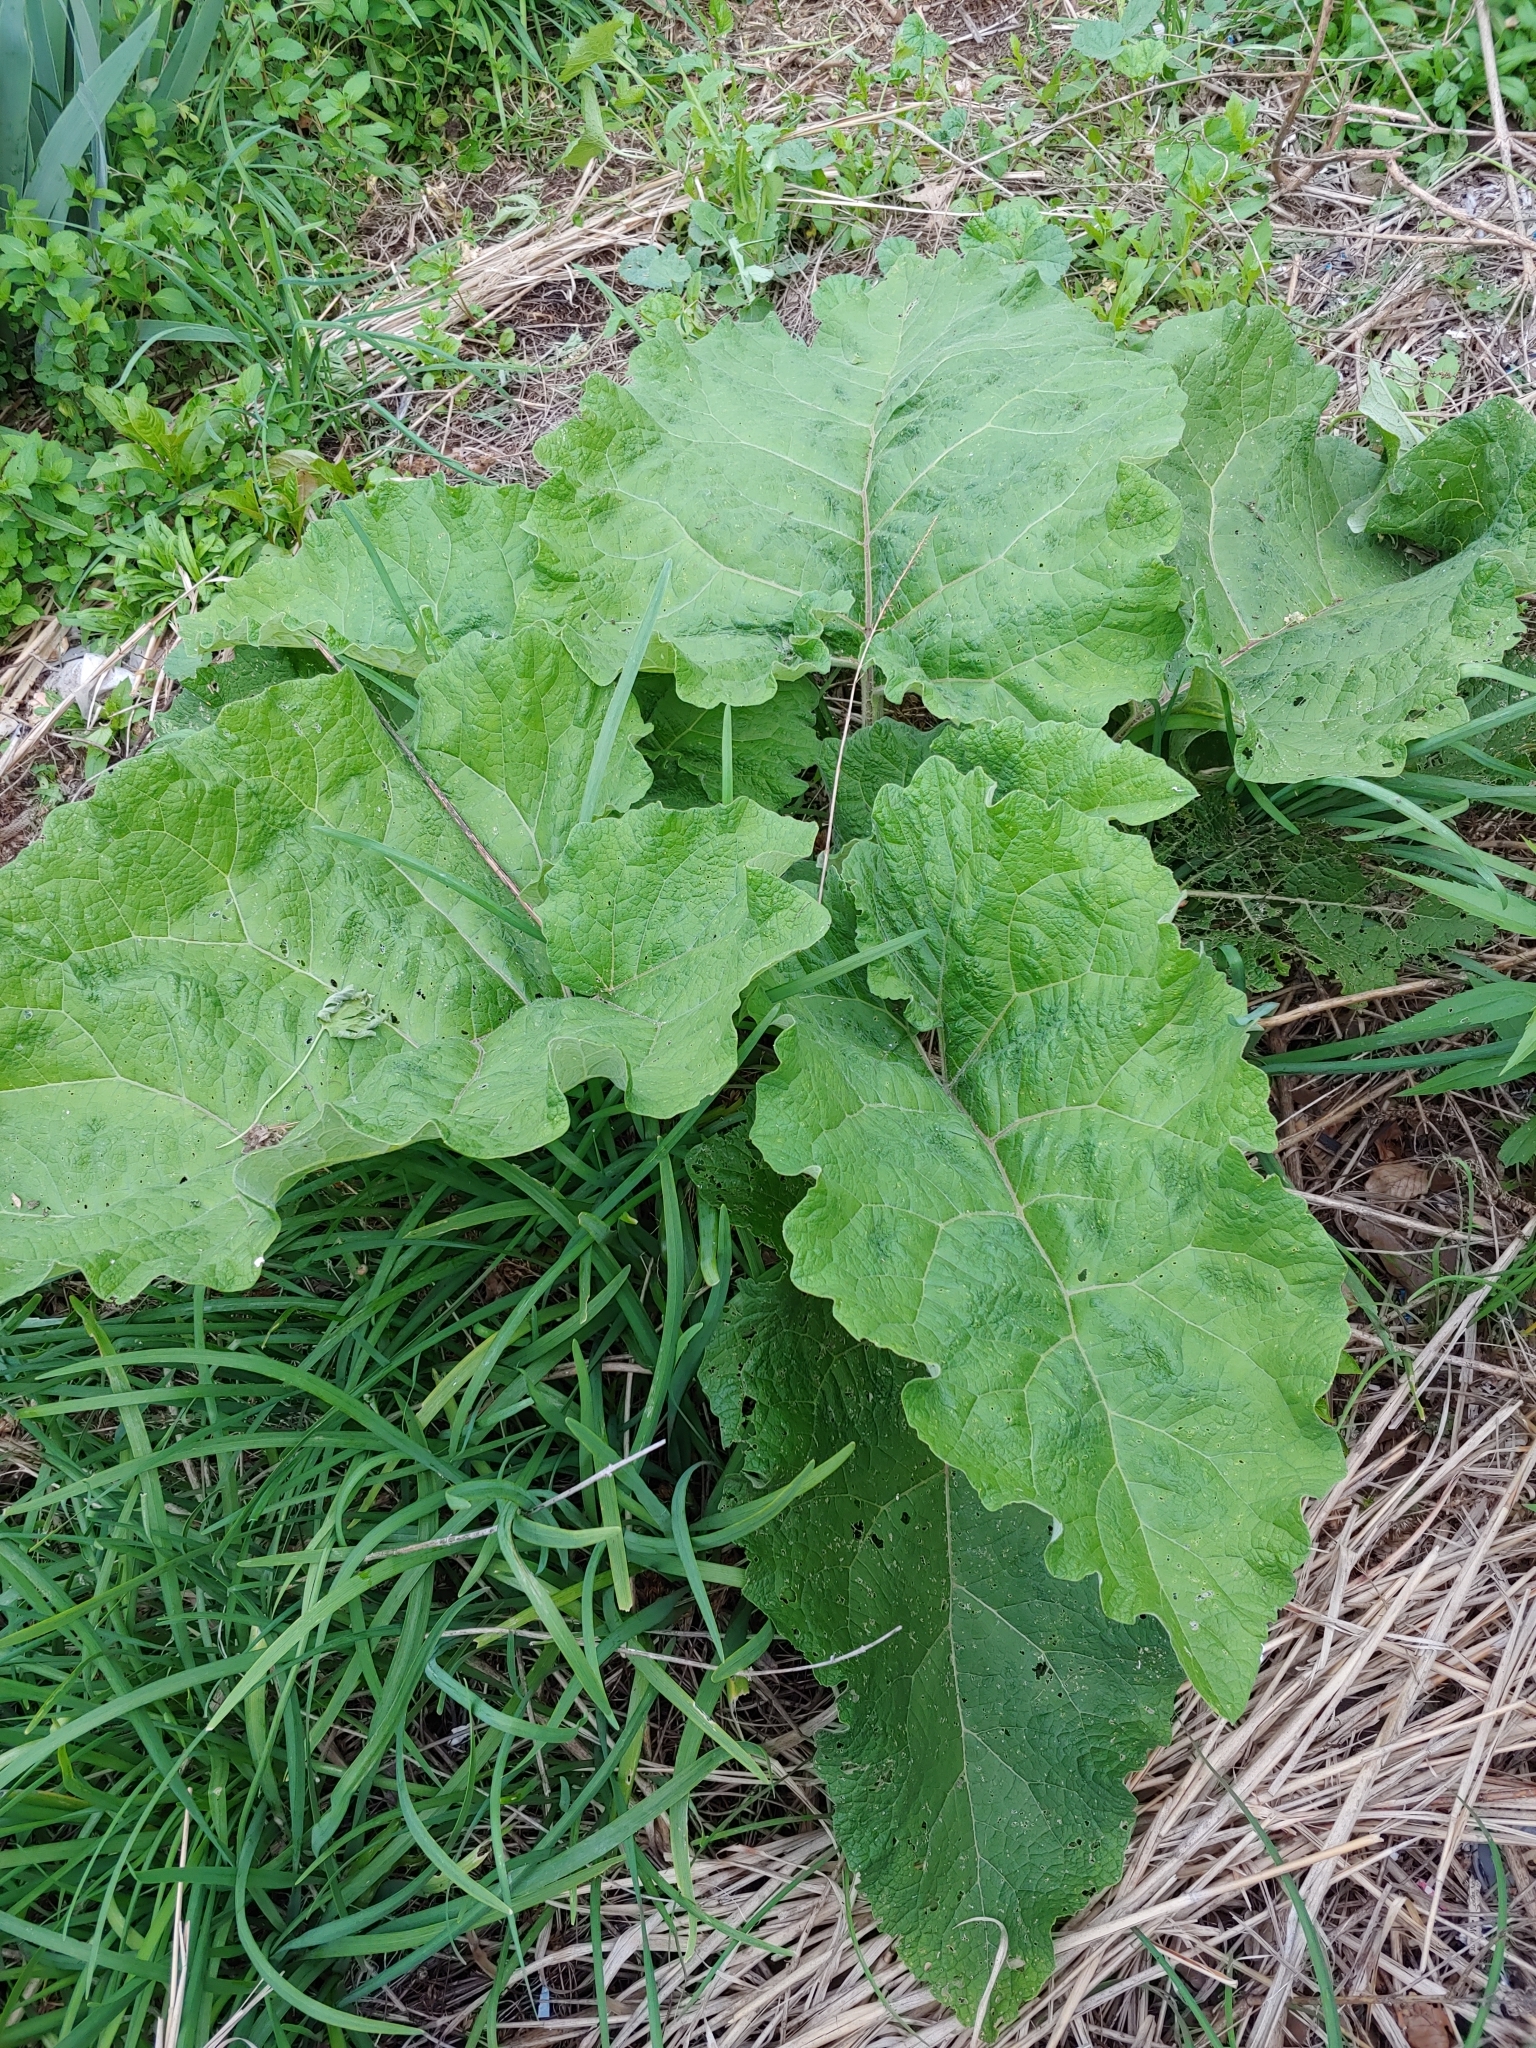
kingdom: Plantae
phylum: Tracheophyta
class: Magnoliopsida
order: Asterales
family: Asteraceae
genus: Arctium
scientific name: Arctium
